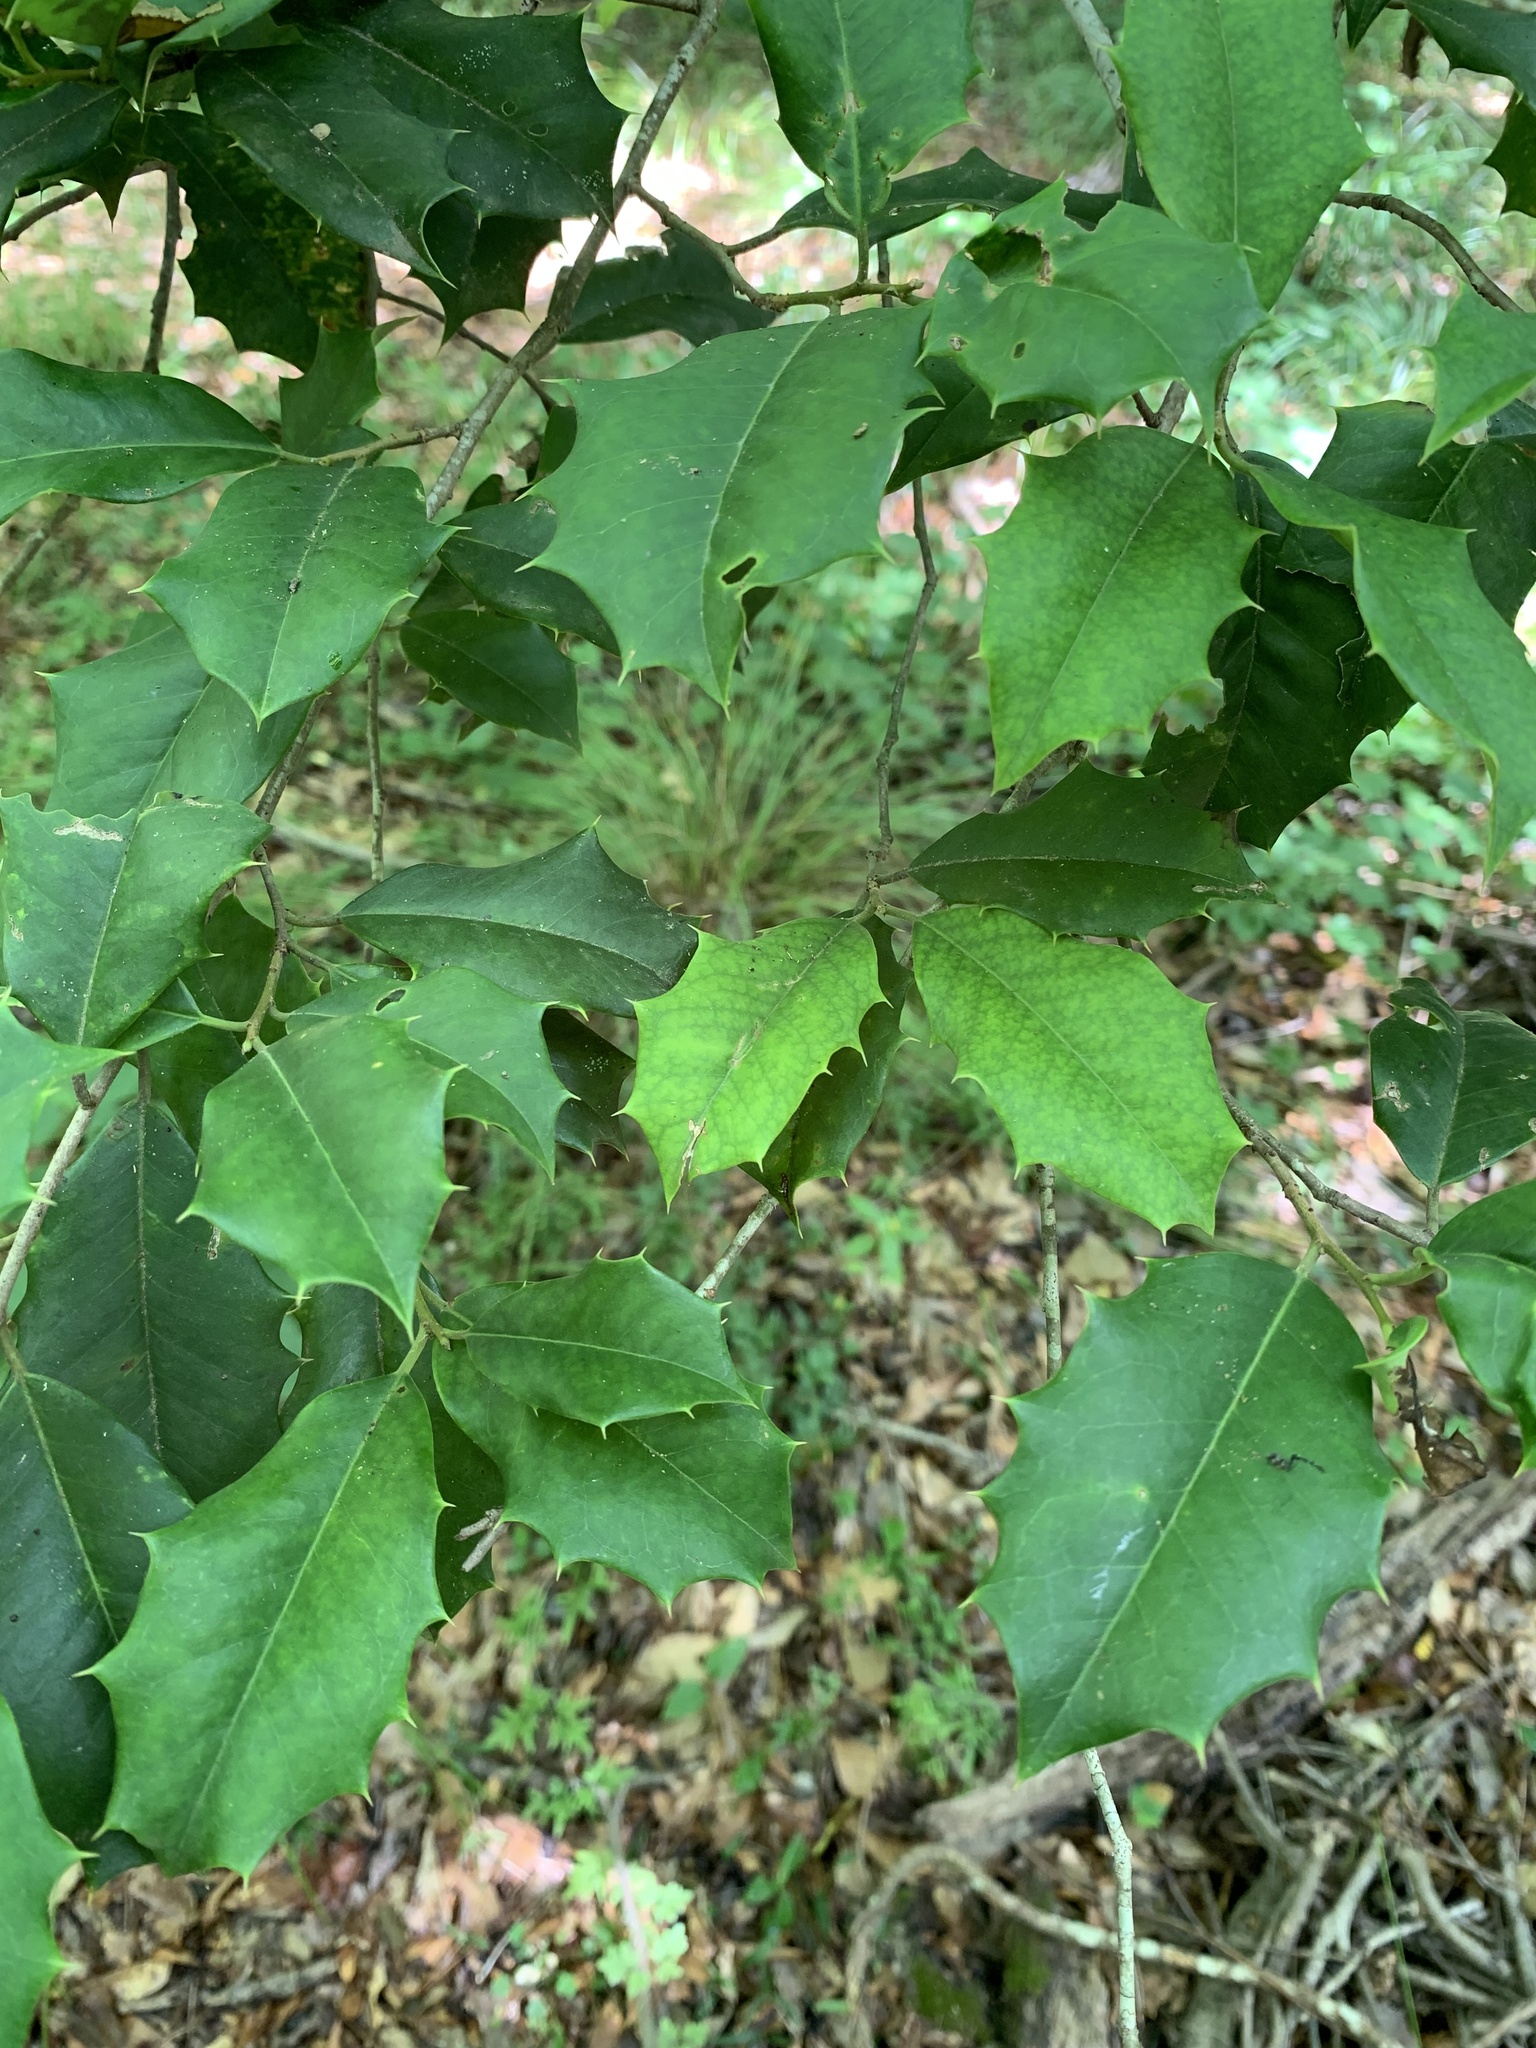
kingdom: Plantae
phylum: Tracheophyta
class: Magnoliopsida
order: Aquifoliales
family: Aquifoliaceae
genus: Ilex
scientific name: Ilex opaca
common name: American holly
